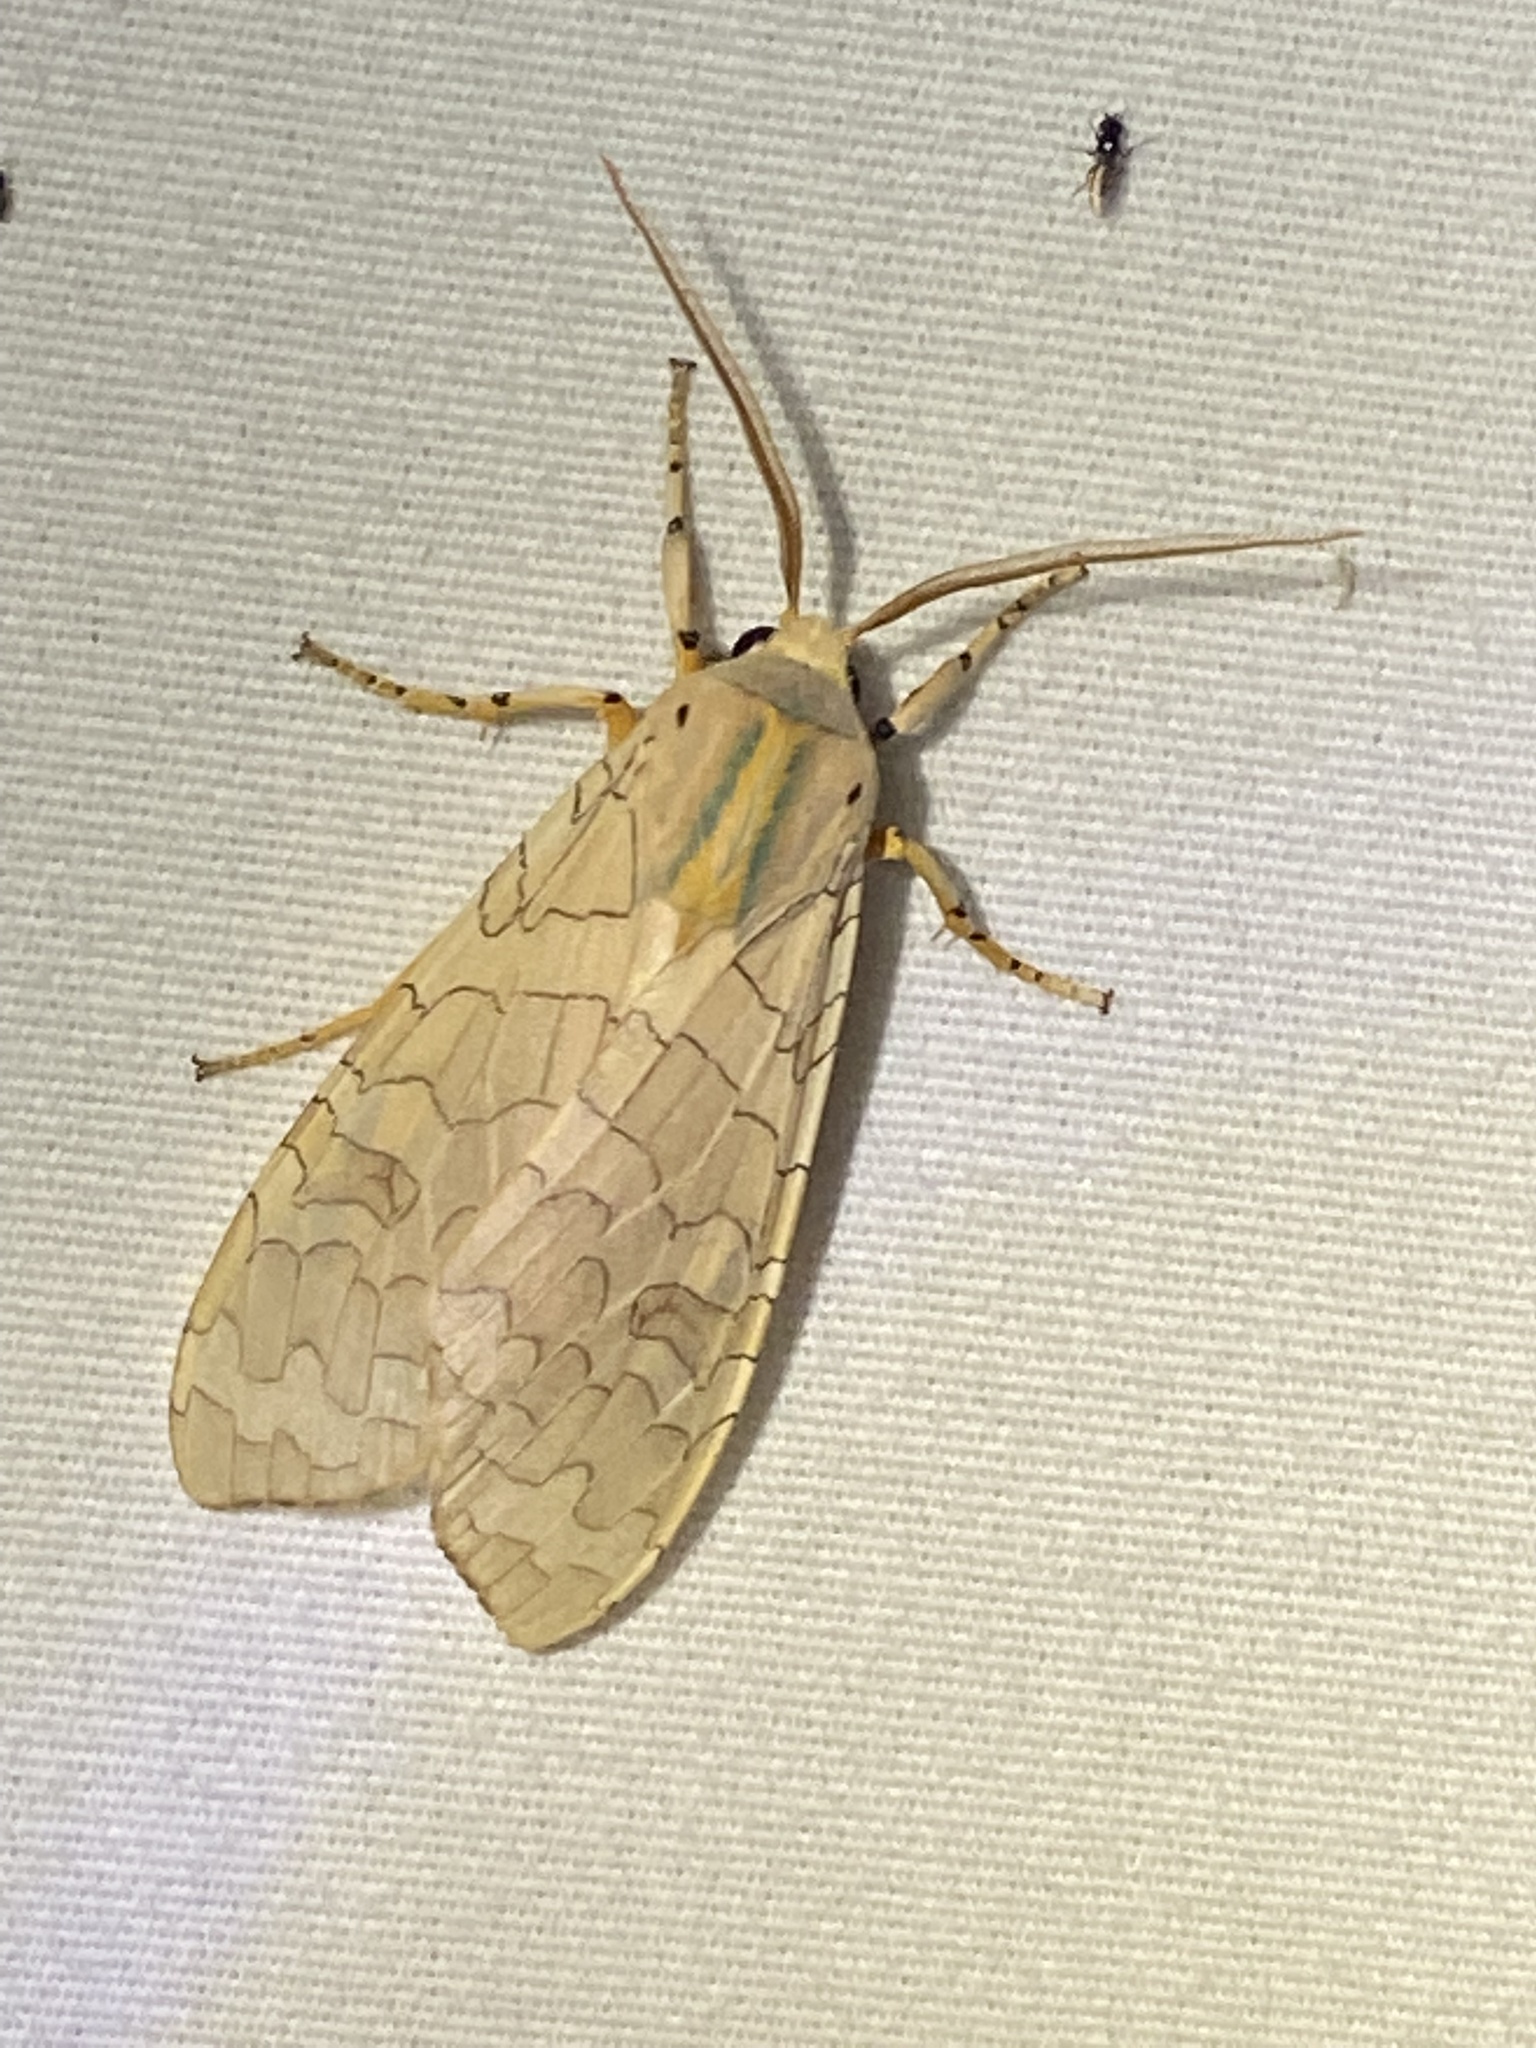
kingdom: Animalia
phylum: Arthropoda
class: Insecta
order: Lepidoptera
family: Erebidae
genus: Halysidota
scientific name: Halysidota
